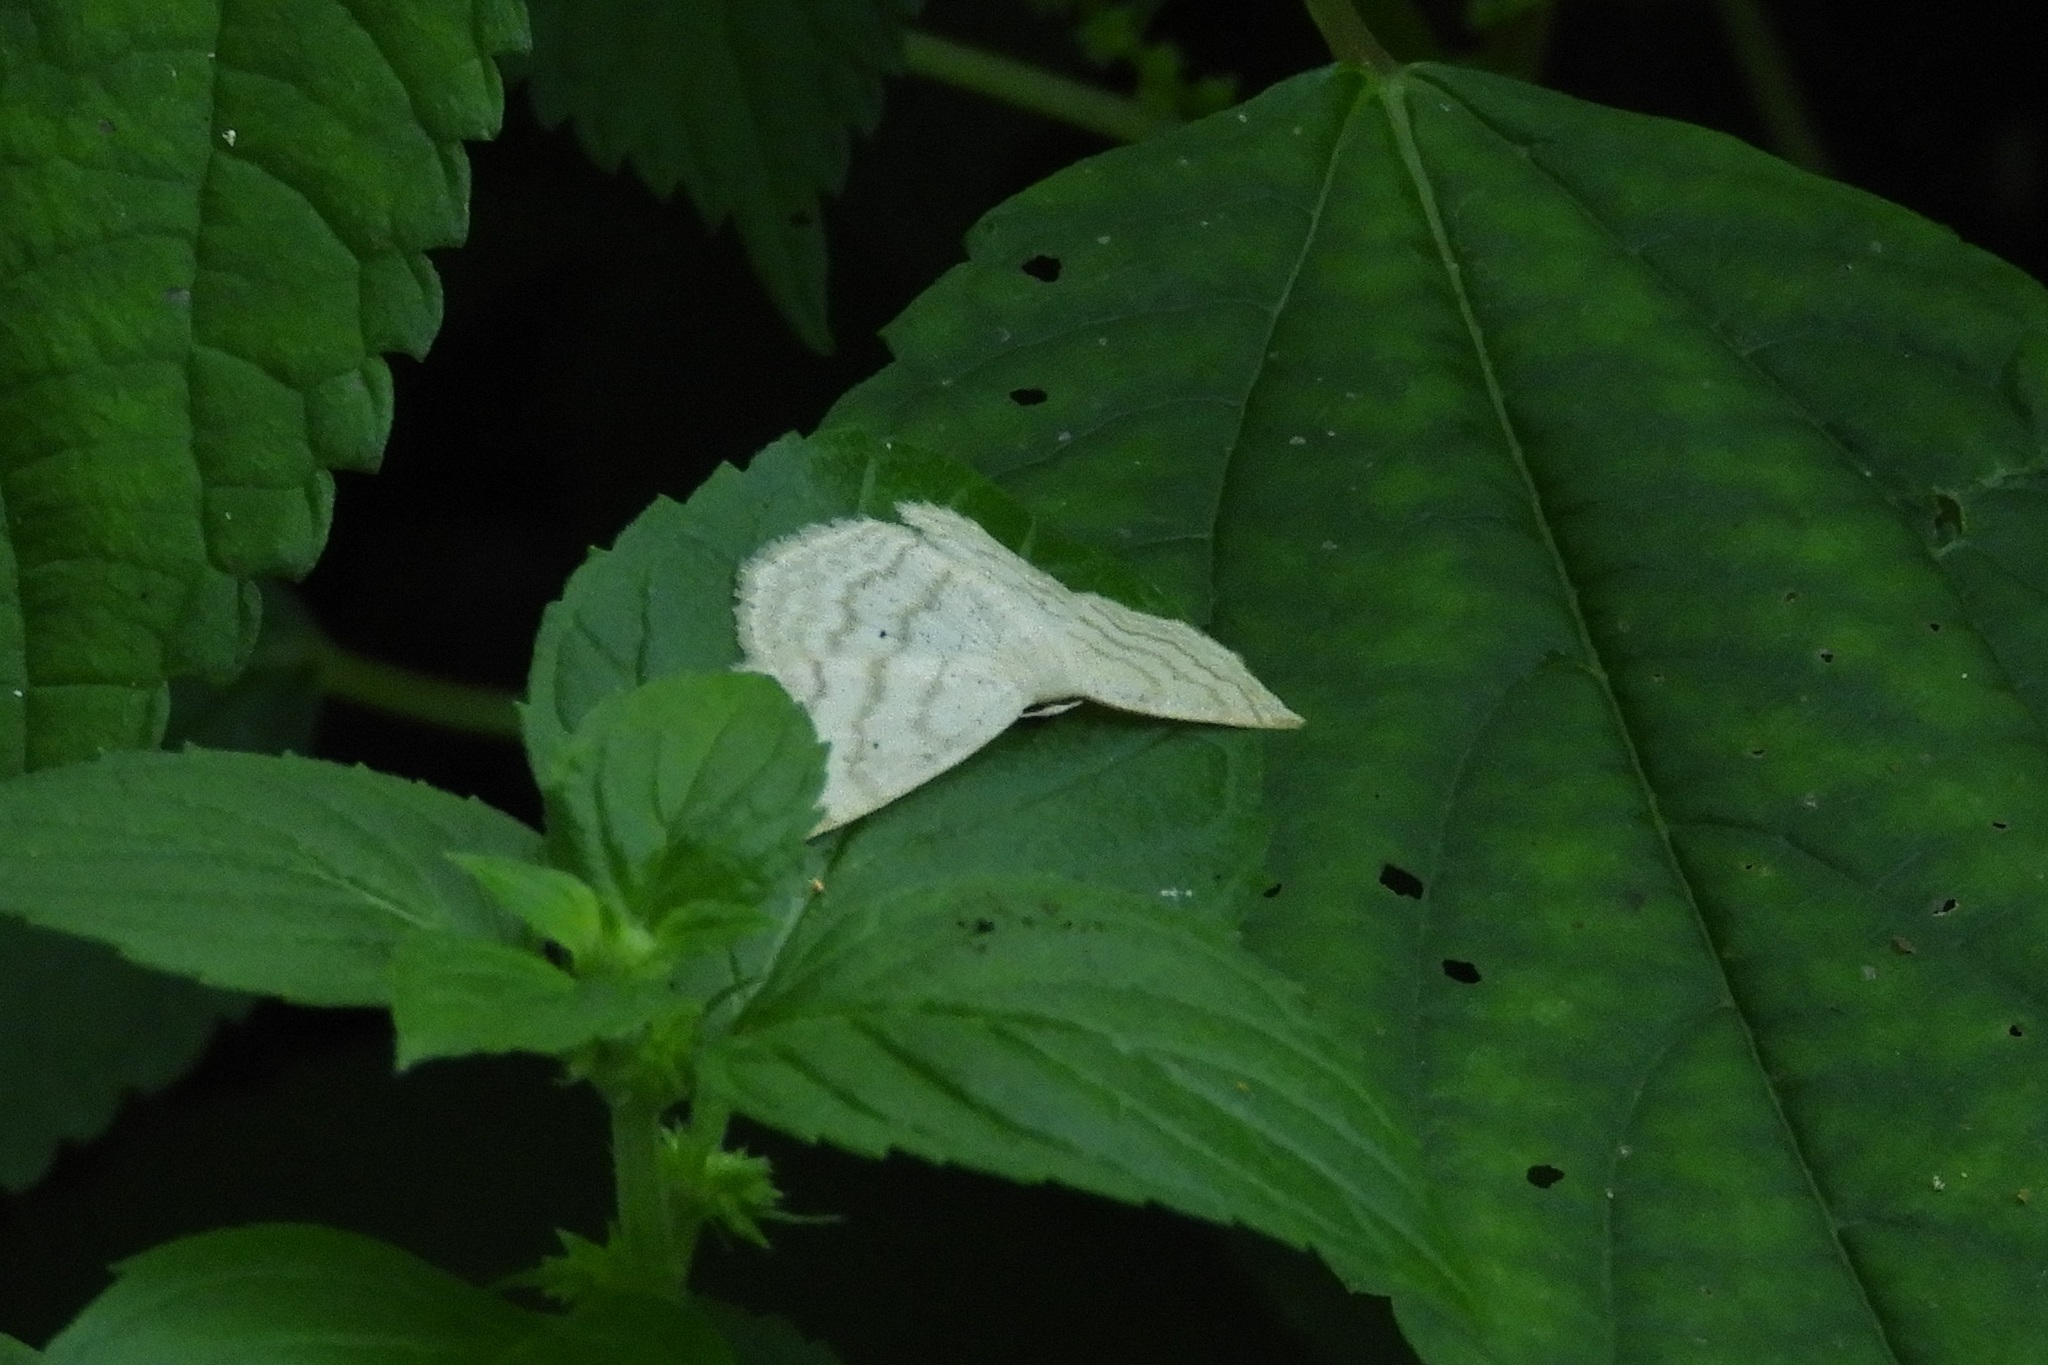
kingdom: Animalia
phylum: Arthropoda
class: Insecta
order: Lepidoptera
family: Geometridae
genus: Scopula
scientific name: Scopula limboundata
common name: Large lace border
